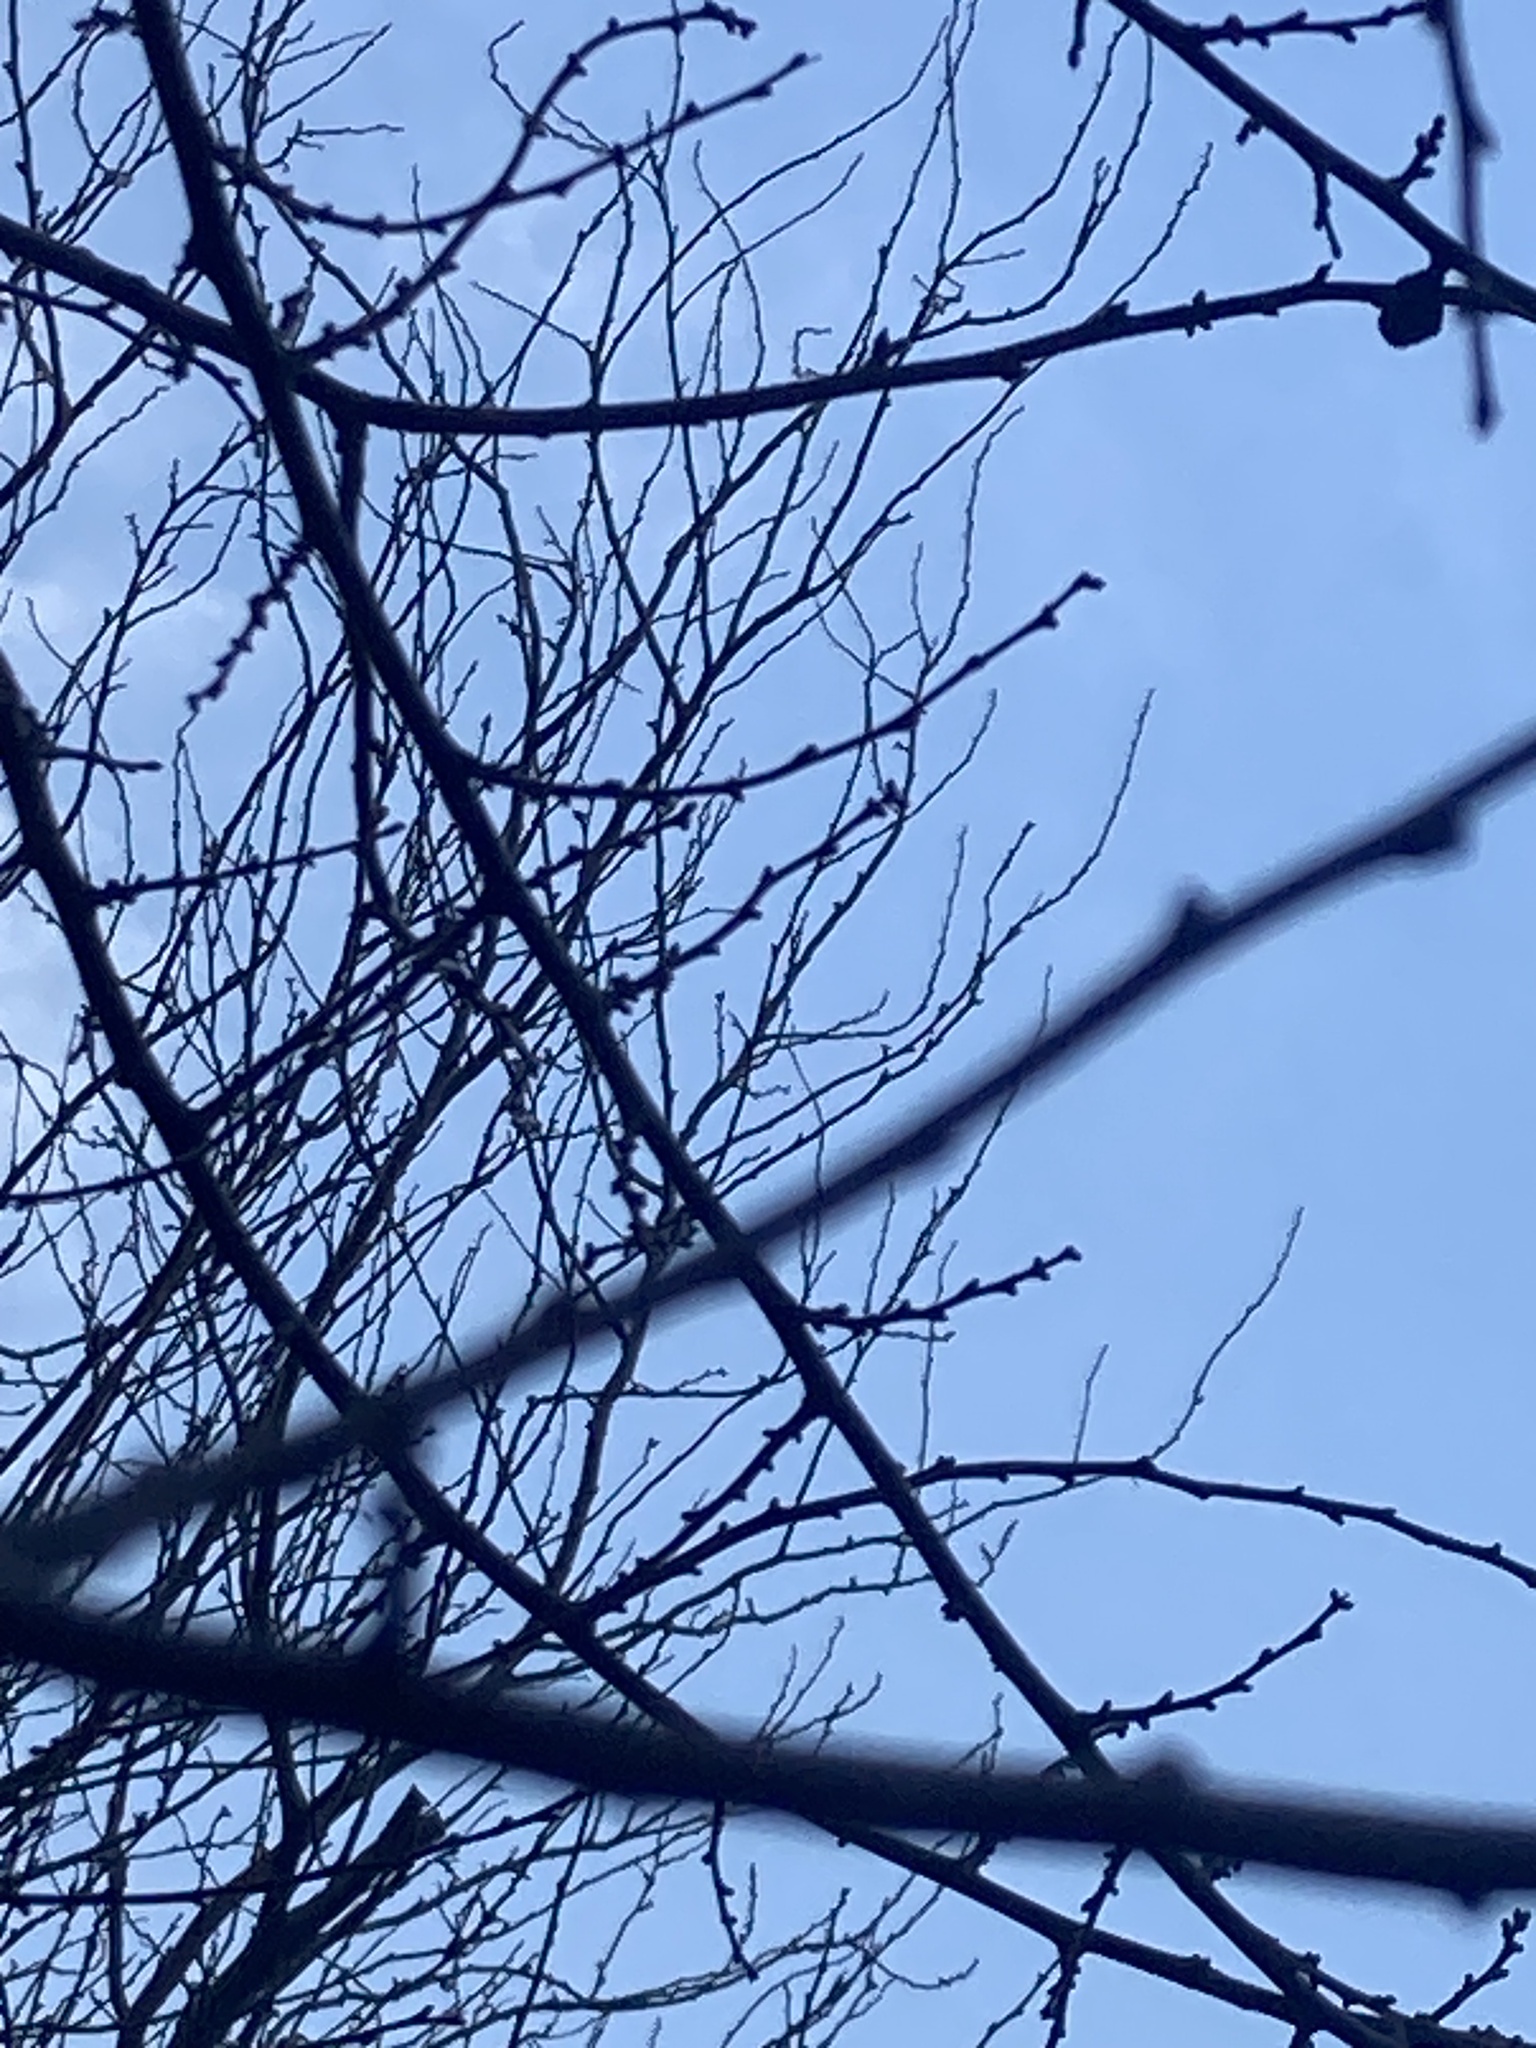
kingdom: Plantae
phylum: Tracheophyta
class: Magnoliopsida
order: Rosales
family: Rosaceae
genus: Prunus
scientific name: Prunus spinosa
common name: Blackthorn
